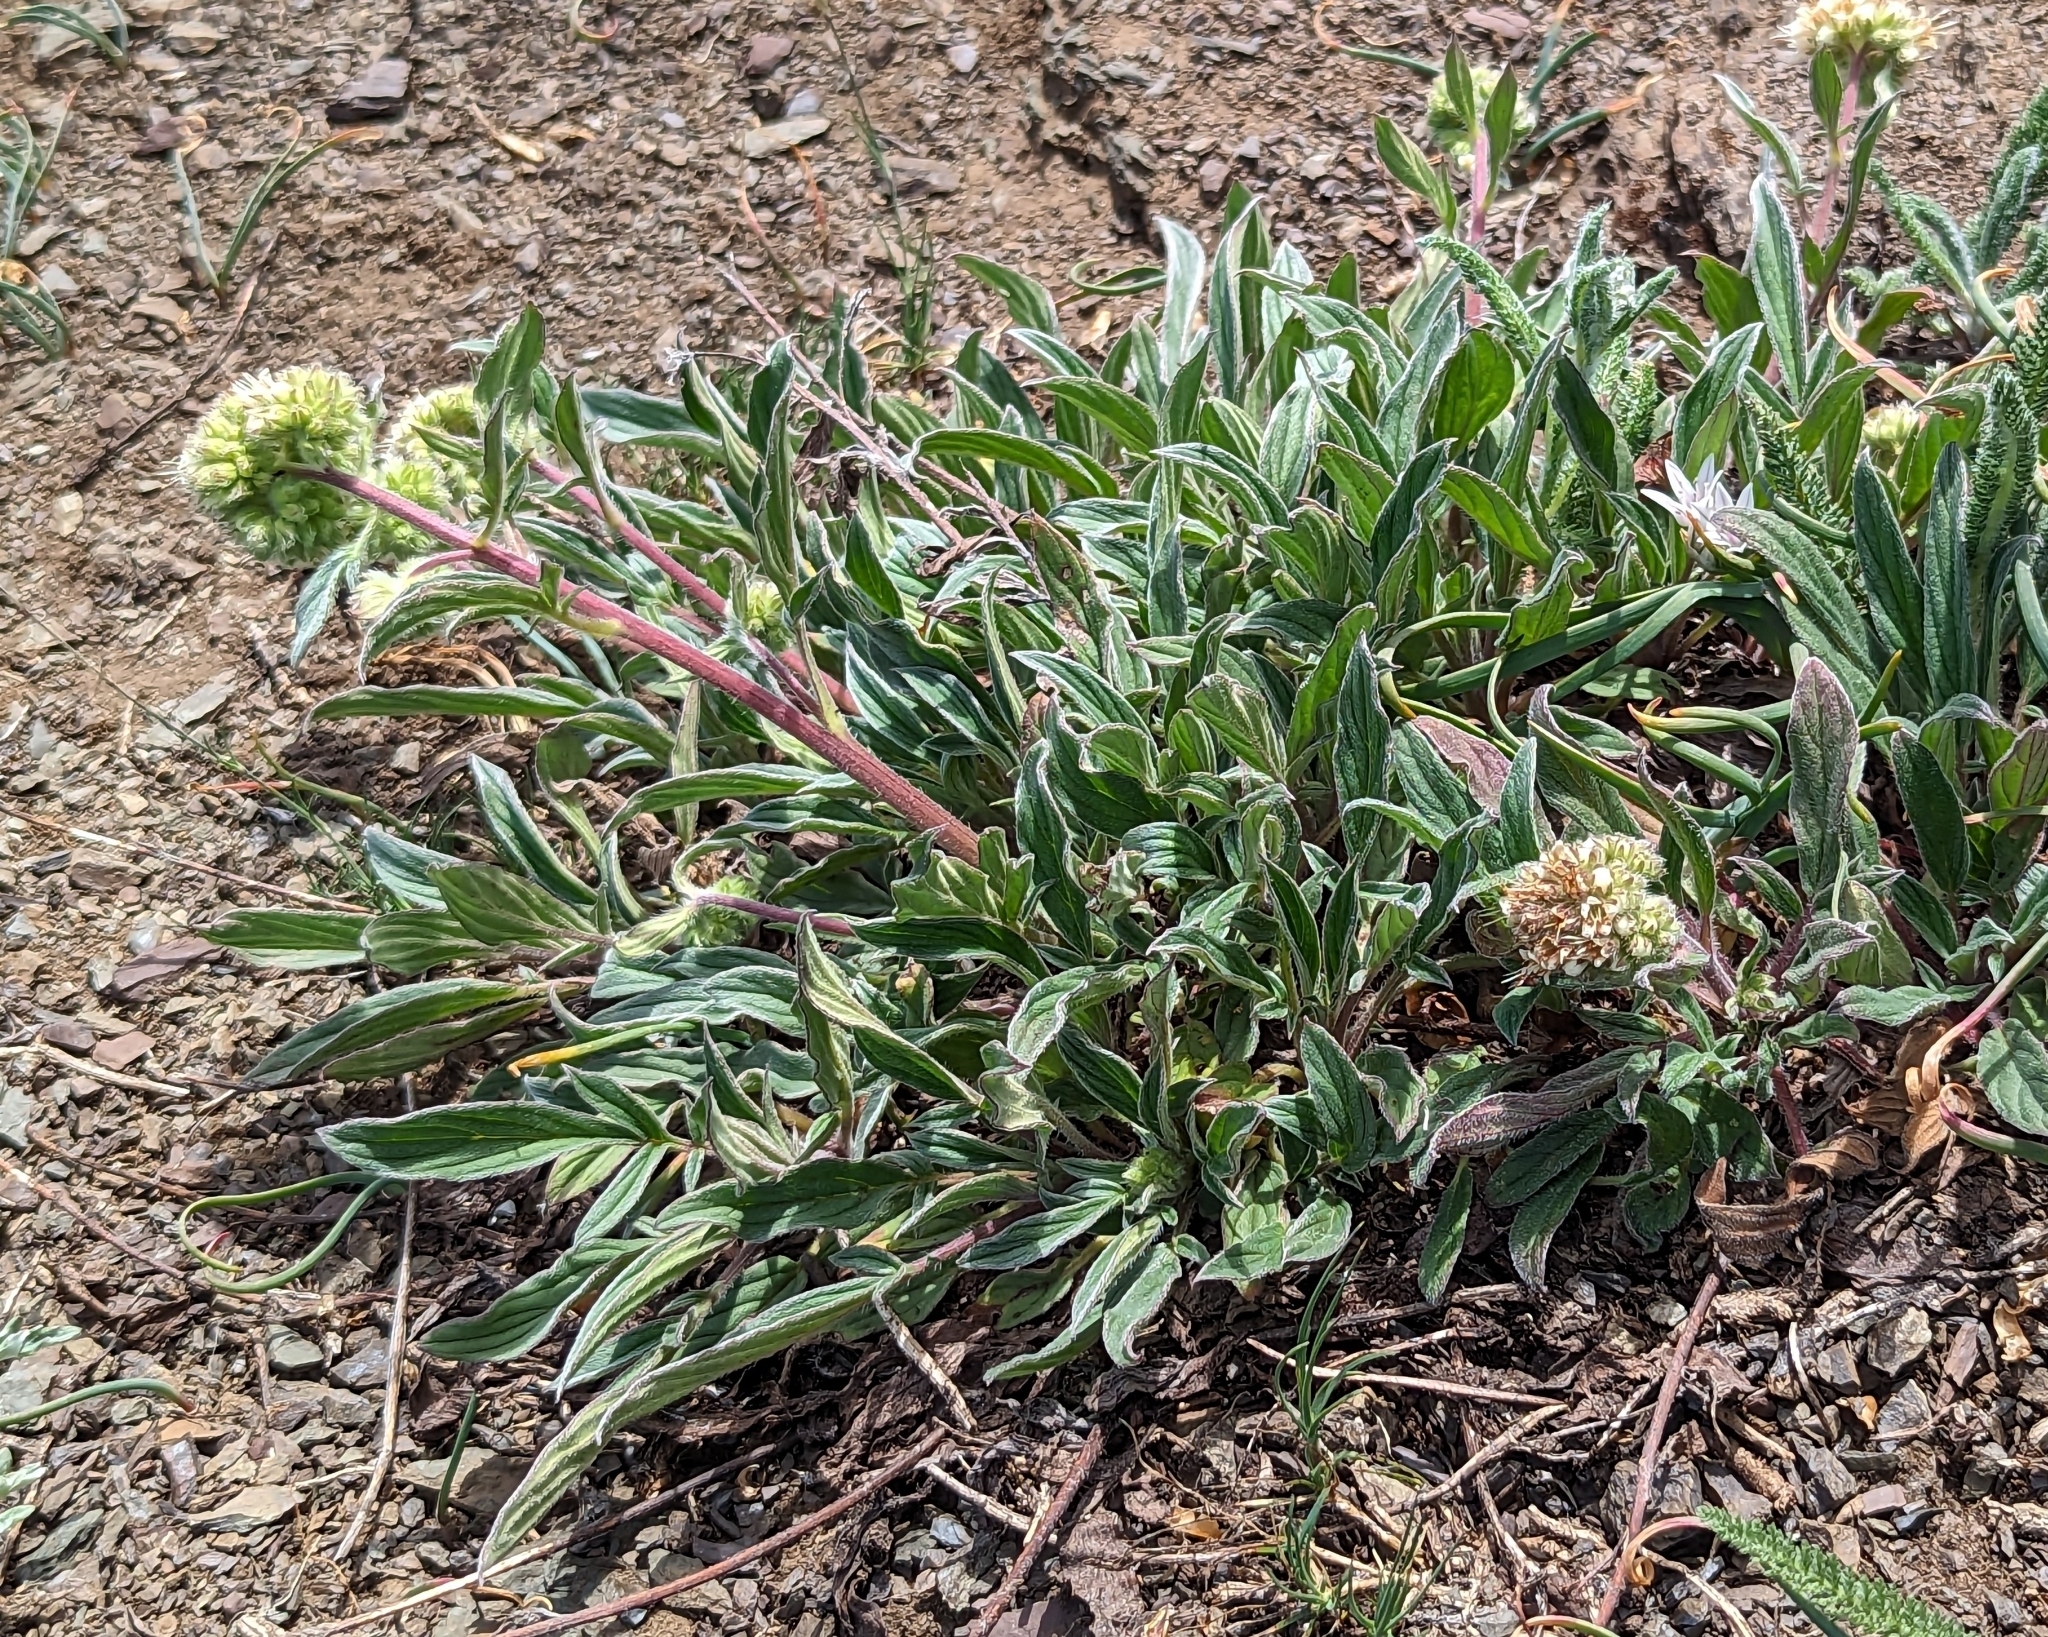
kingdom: Plantae
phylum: Tracheophyta
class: Magnoliopsida
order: Boraginales
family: Hydrophyllaceae
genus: Phacelia
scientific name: Phacelia hastata
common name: Silver-leaved phacelia
